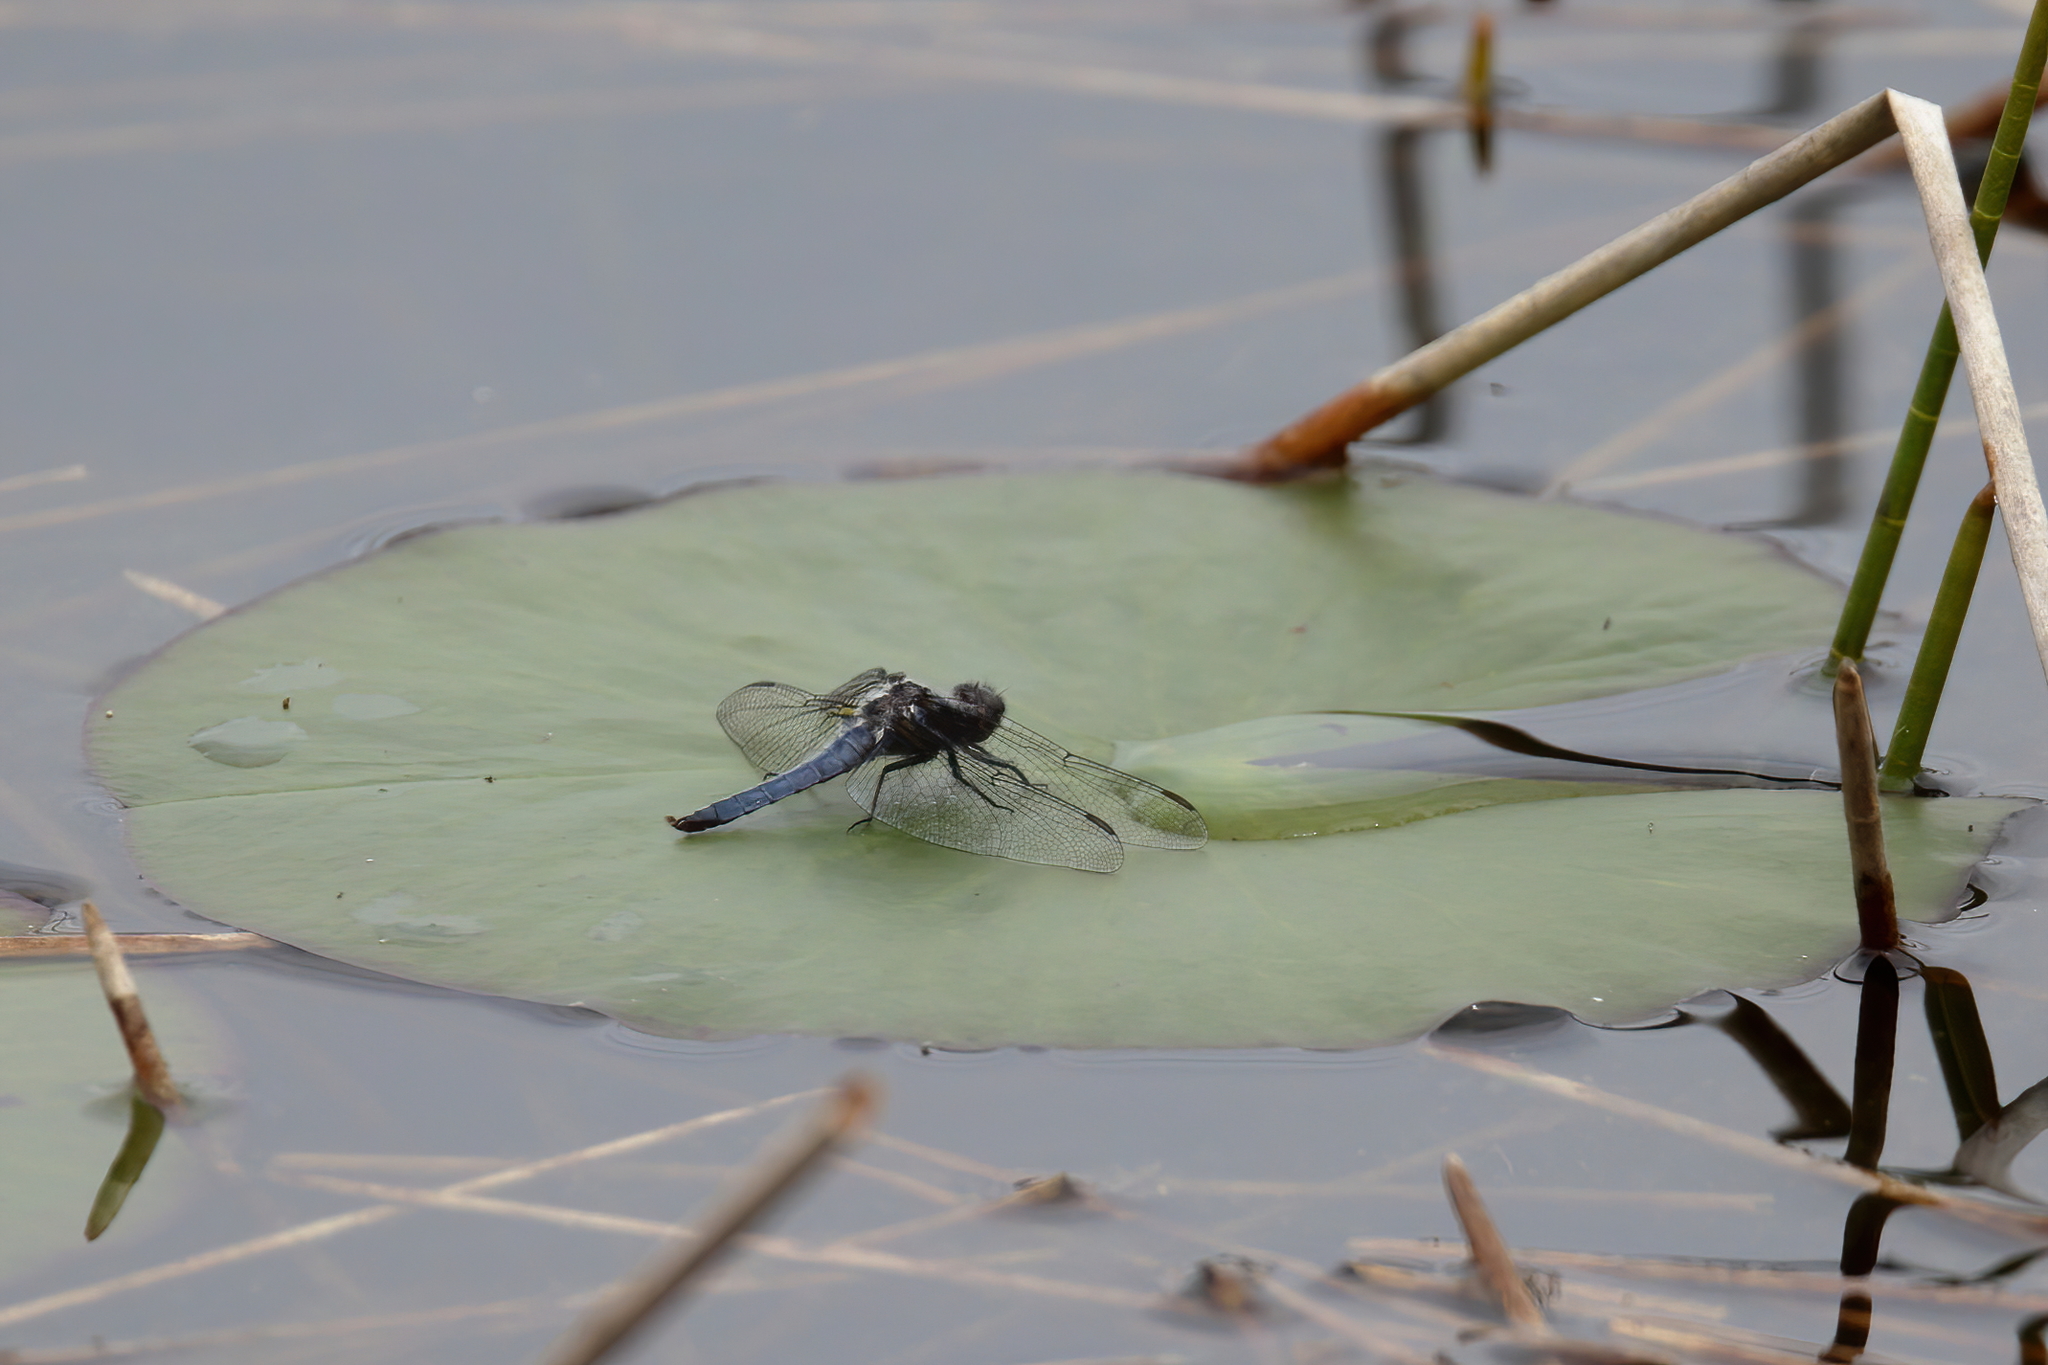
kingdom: Animalia
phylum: Arthropoda
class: Insecta
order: Odonata
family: Libellulidae
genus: Ladona
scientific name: Ladona deplanata
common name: Blue corporal
